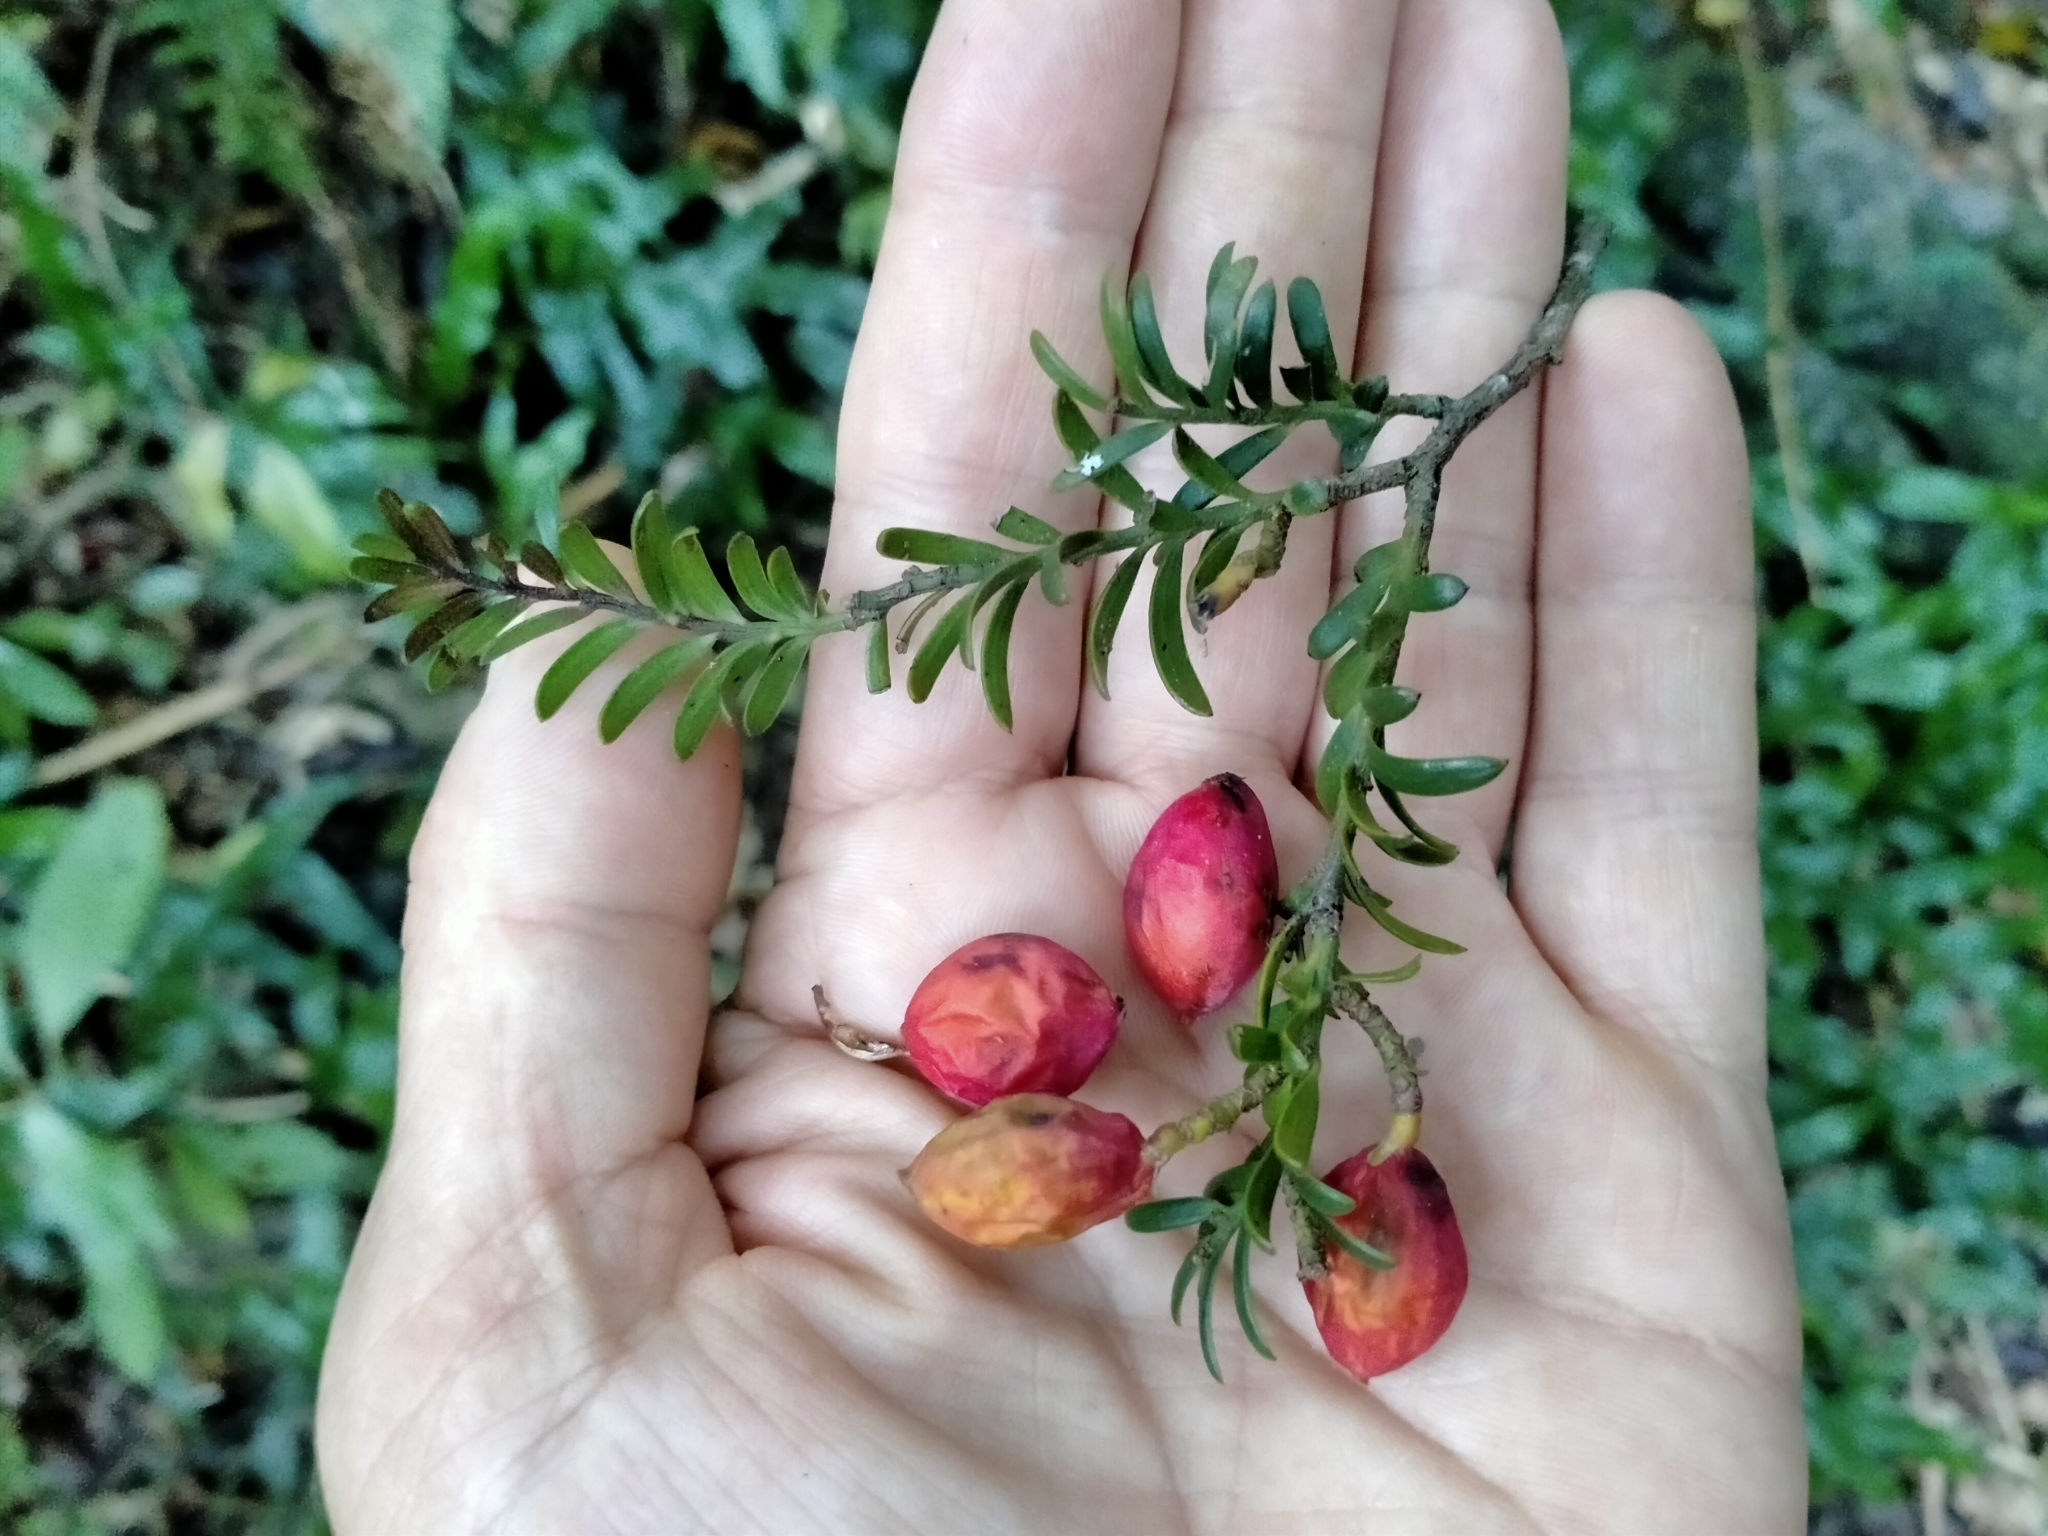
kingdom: Plantae
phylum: Tracheophyta
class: Pinopsida
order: Pinales
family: Podocarpaceae
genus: Prumnopitys
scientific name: Prumnopitys ferruginea
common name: Brown pine
